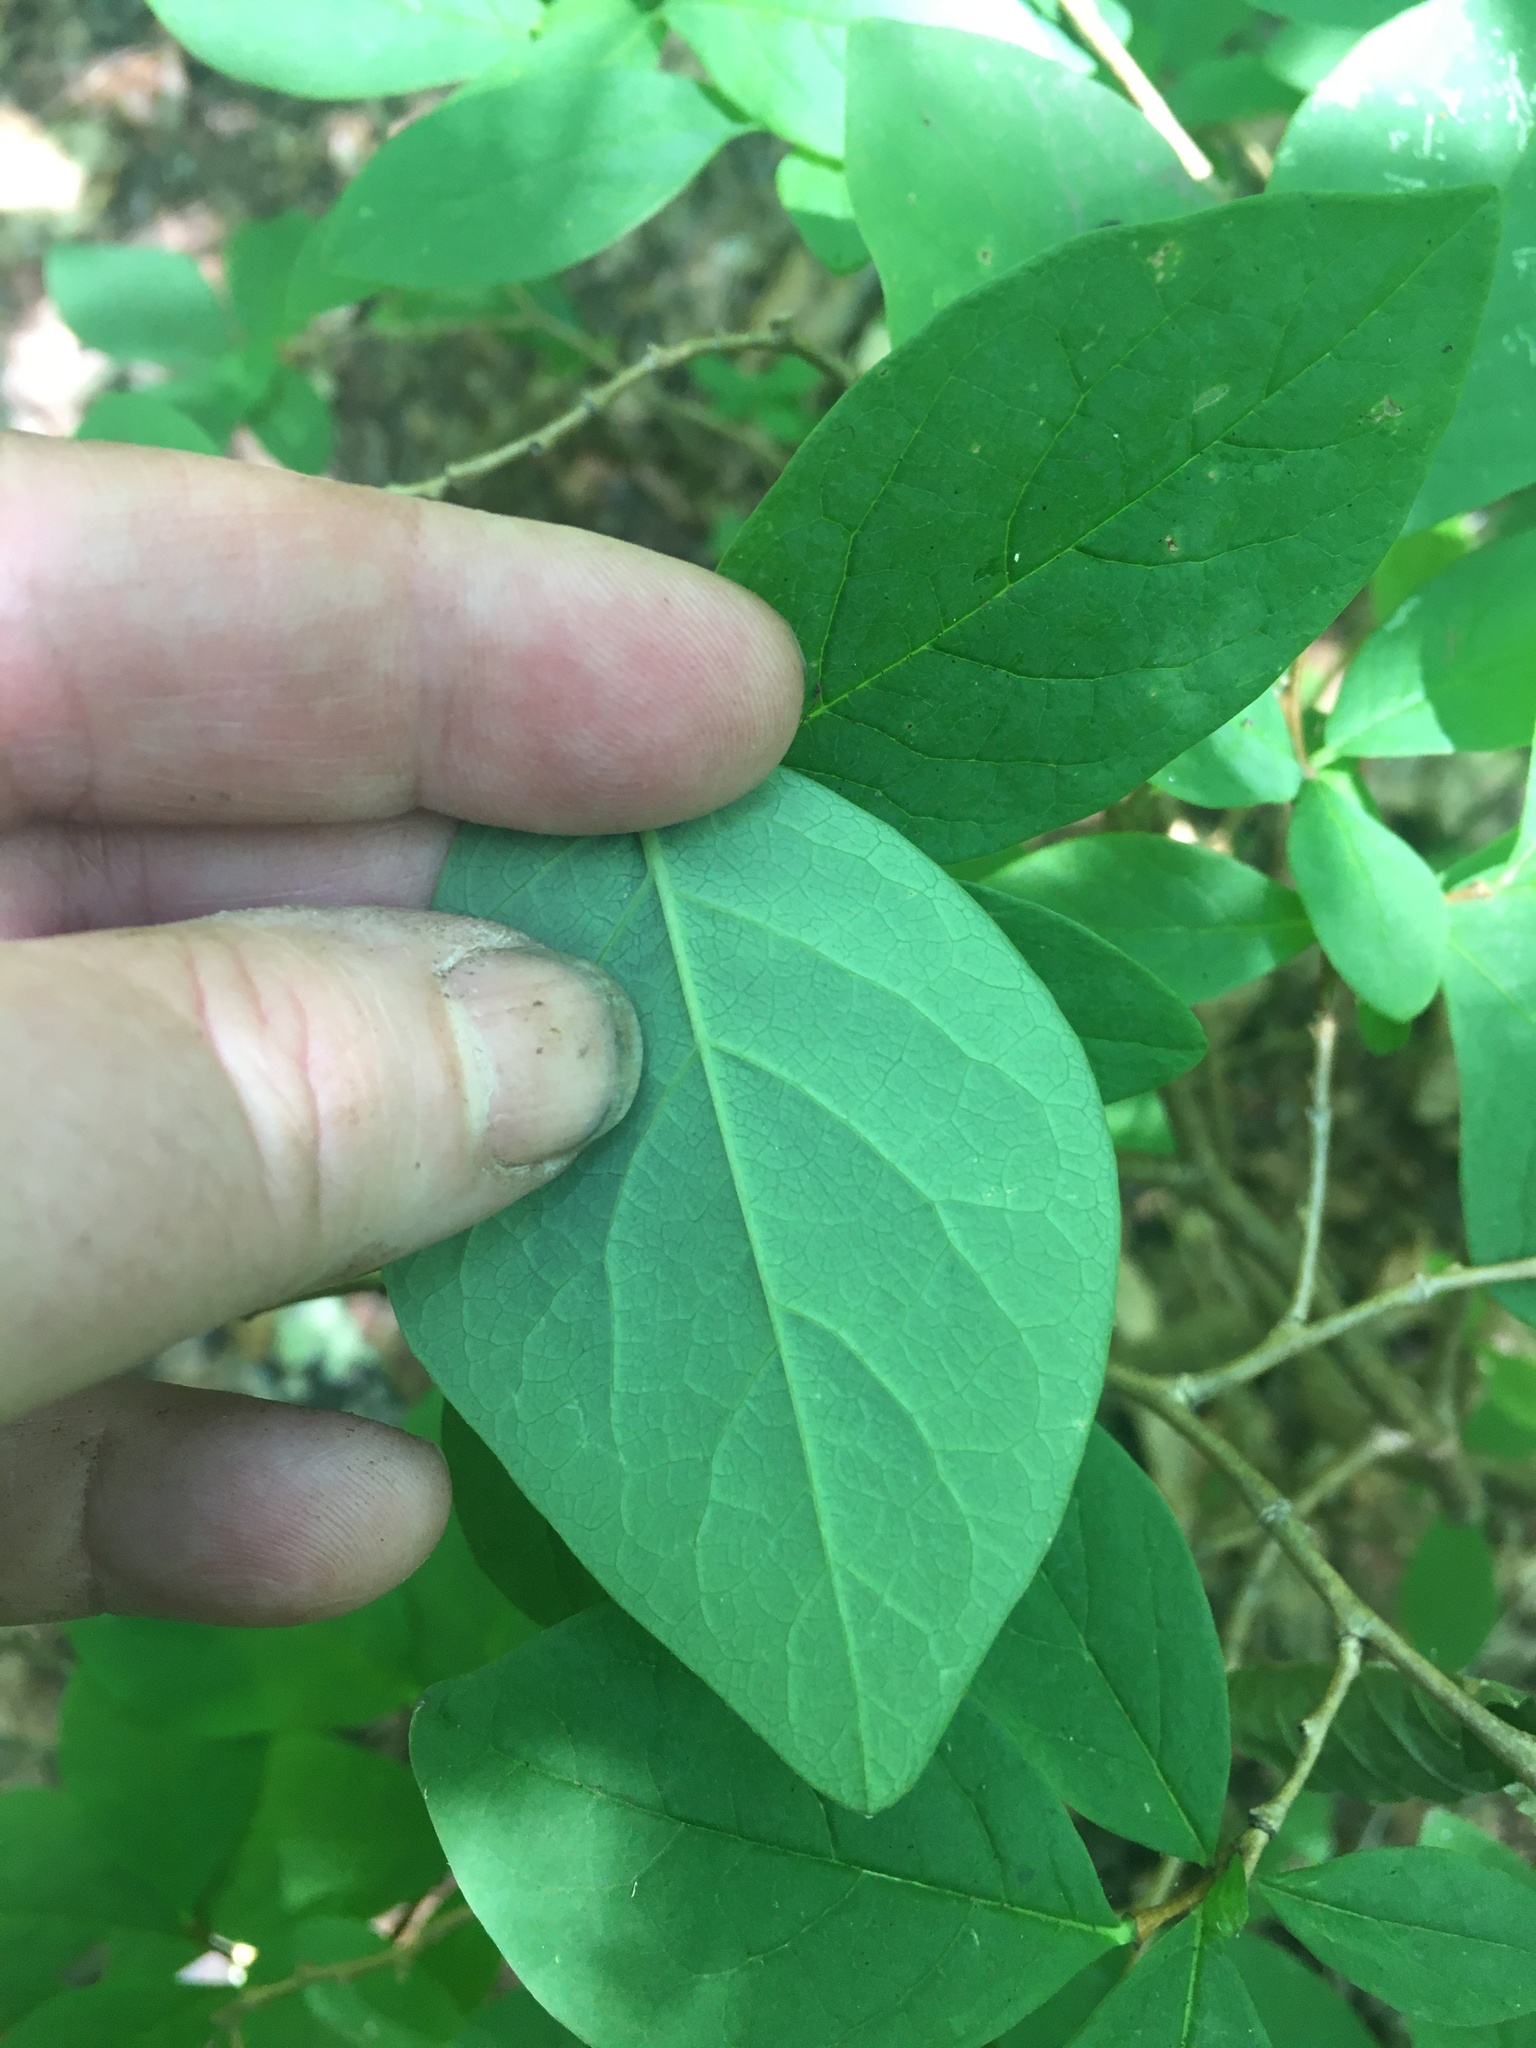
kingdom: Plantae
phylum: Tracheophyta
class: Magnoliopsida
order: Malvales
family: Thymelaeaceae
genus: Dirca
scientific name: Dirca palustris
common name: Leatherwood
